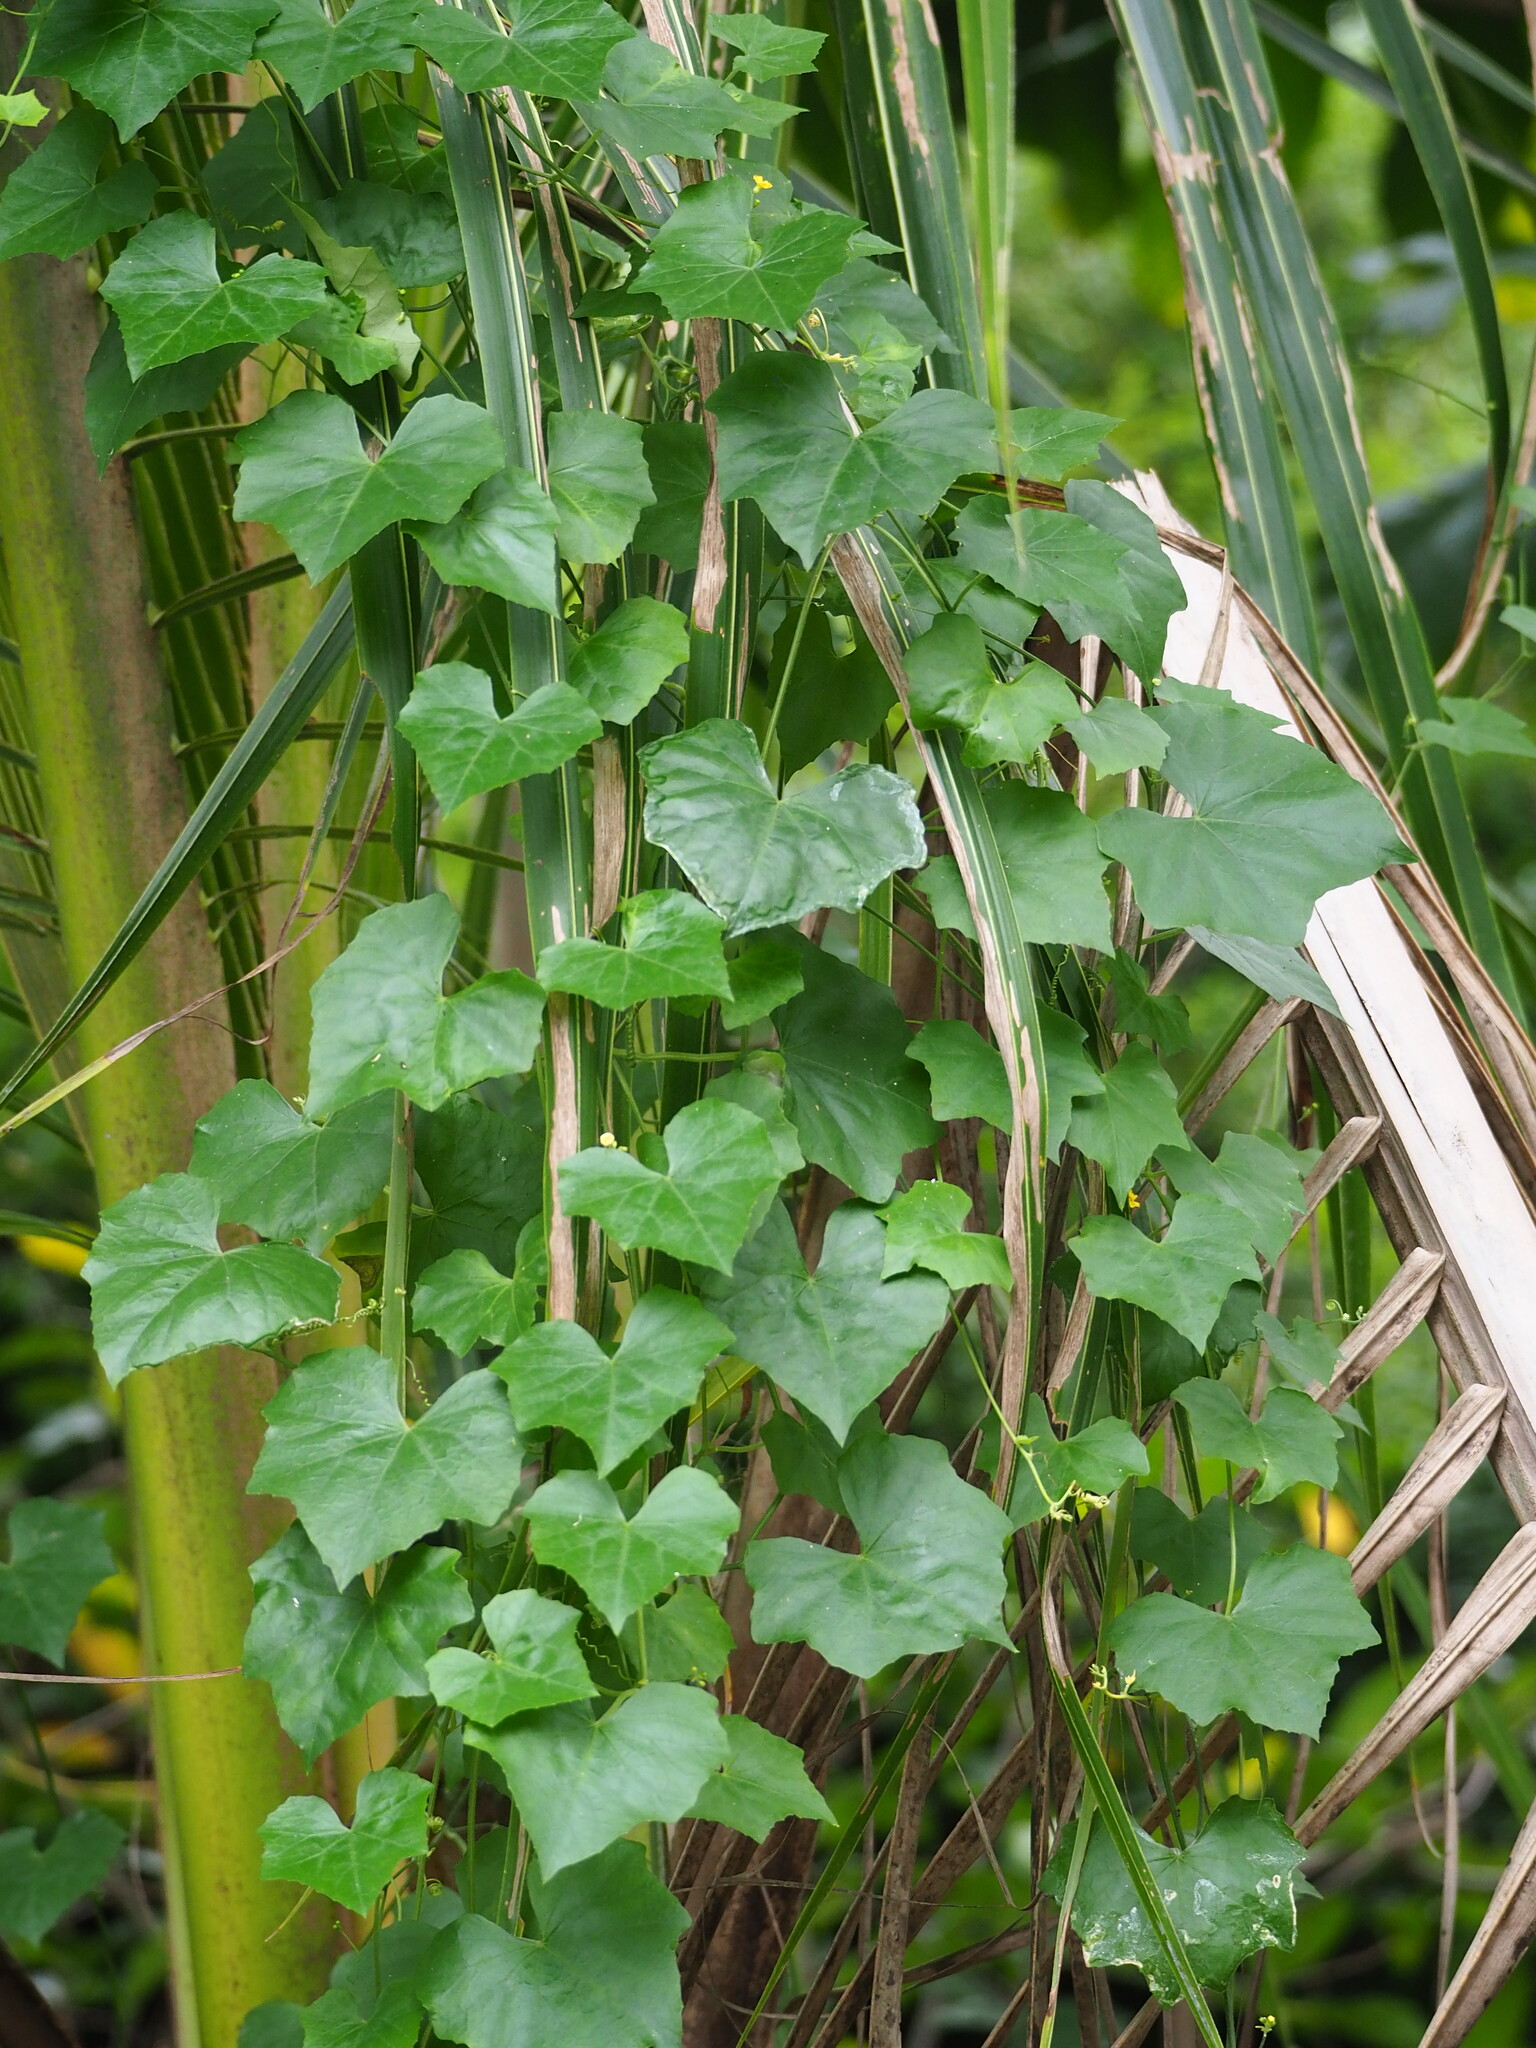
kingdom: Plantae
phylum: Tracheophyta
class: Magnoliopsida
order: Cucurbitales
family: Cucurbitaceae
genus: Melothria
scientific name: Melothria pendula
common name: Creeping-cucumber
